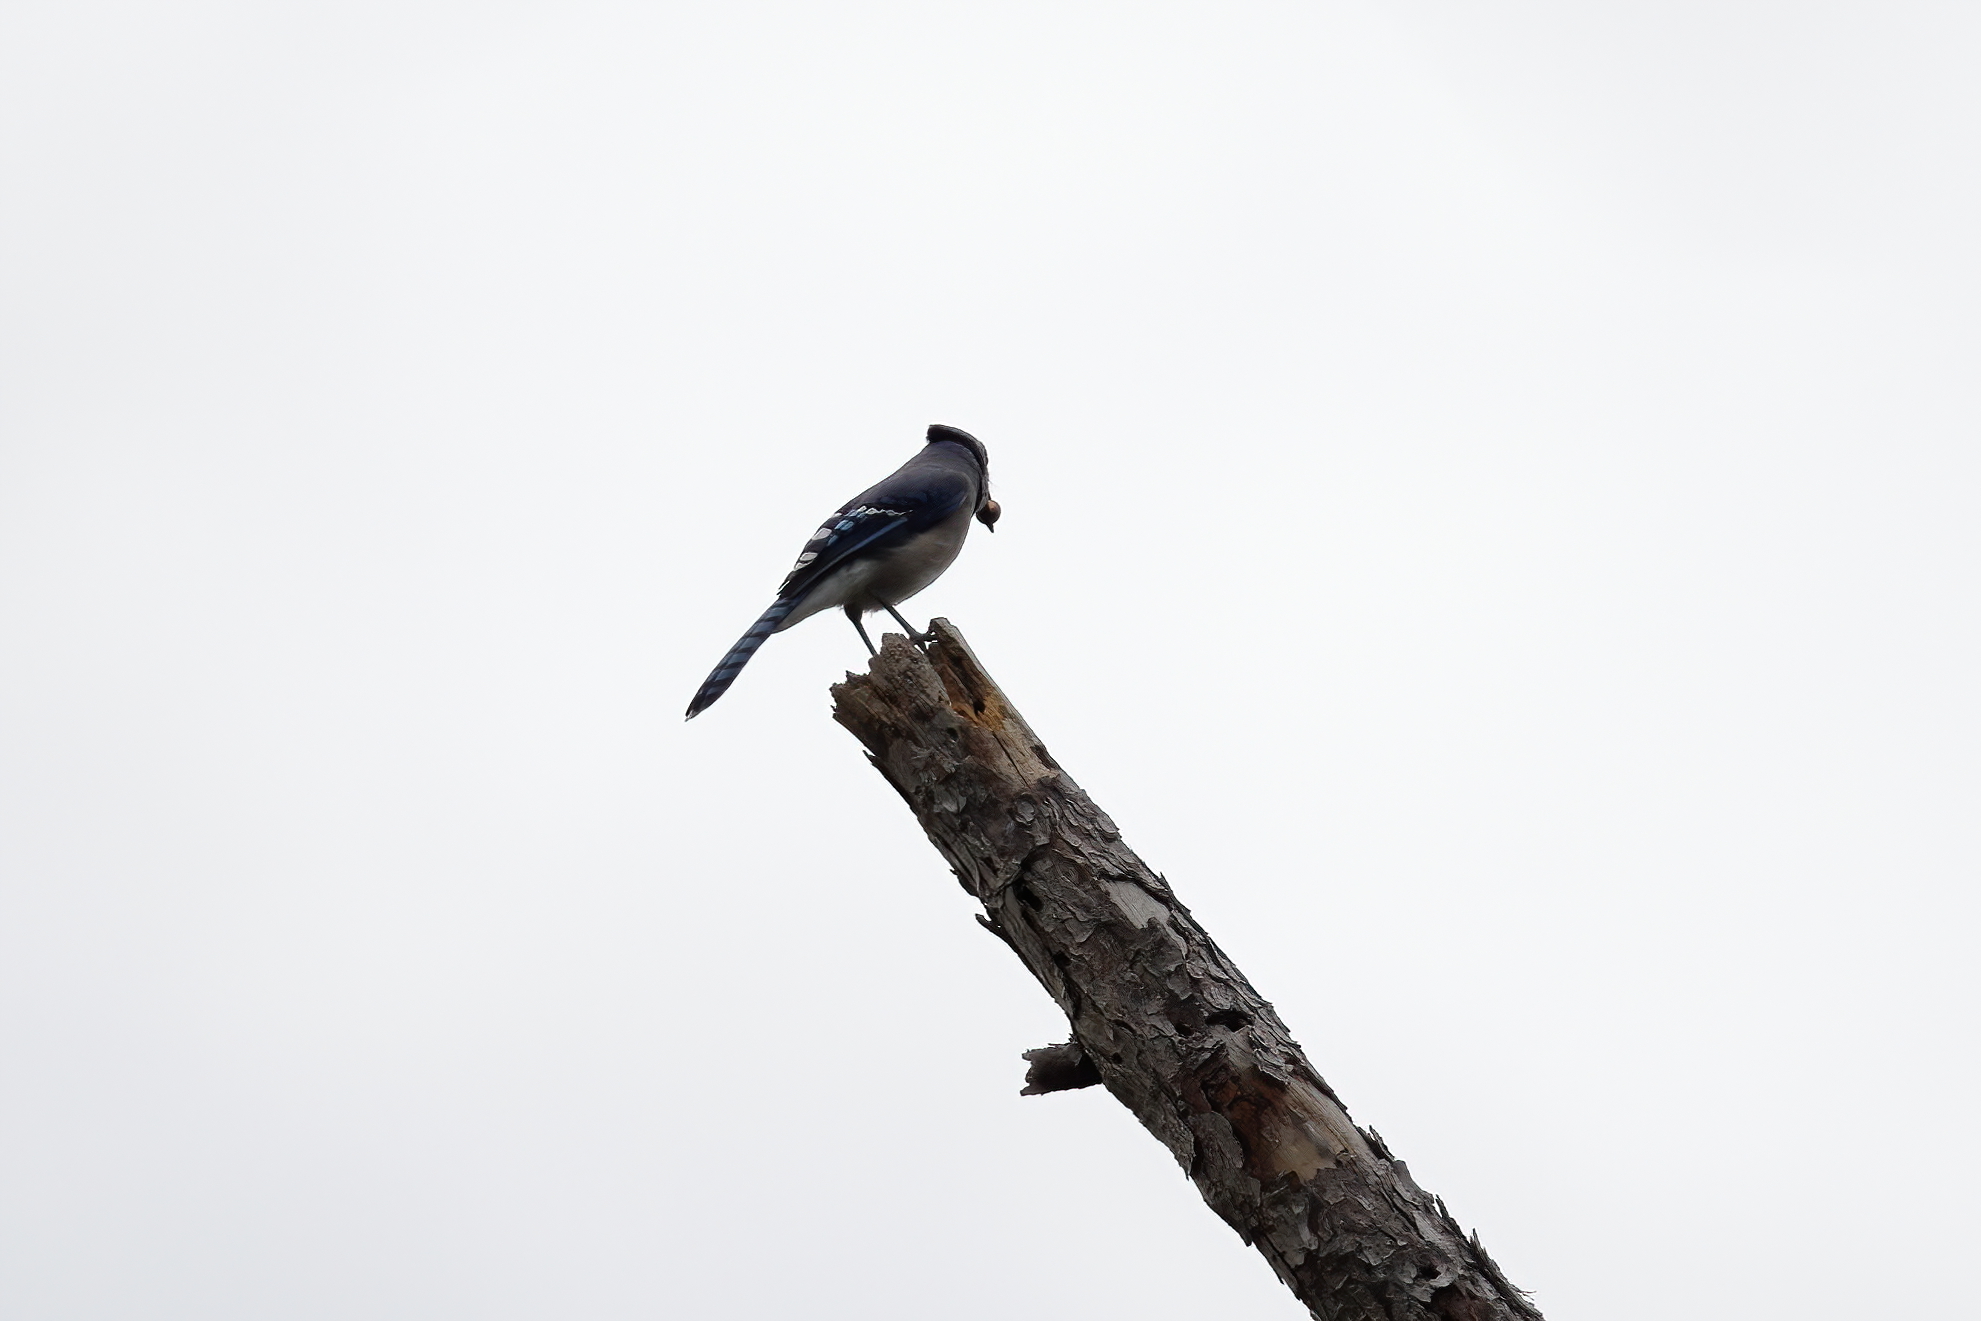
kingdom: Animalia
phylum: Chordata
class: Aves
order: Passeriformes
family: Corvidae
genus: Cyanocitta
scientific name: Cyanocitta cristata
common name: Blue jay
